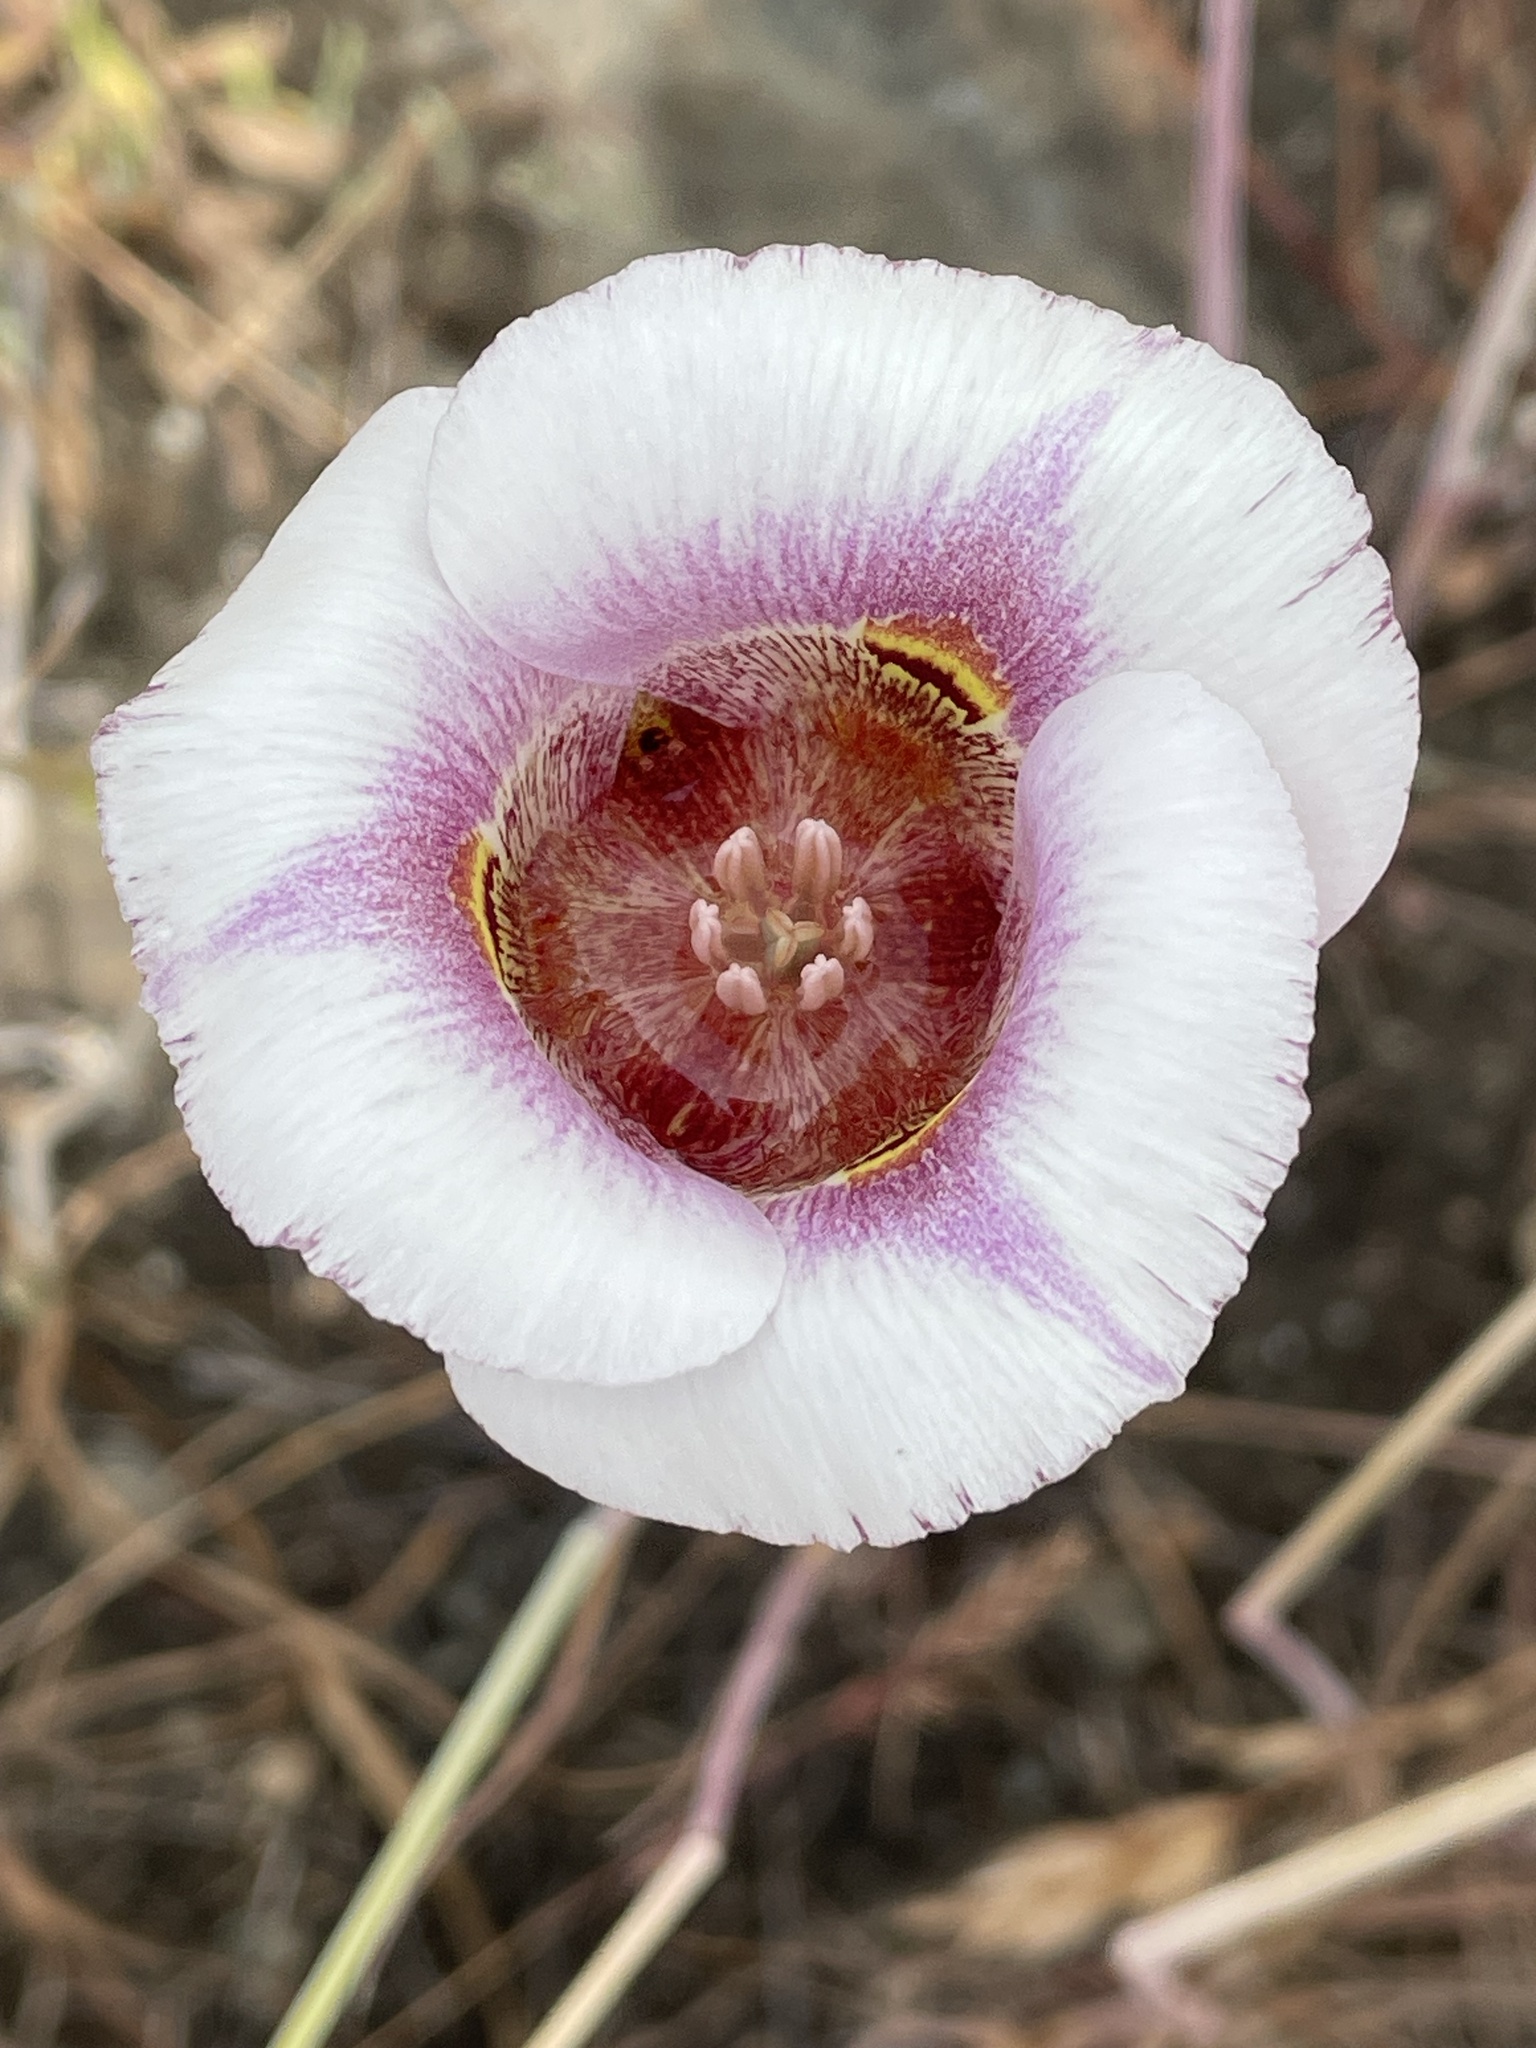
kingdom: Plantae
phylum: Tracheophyta
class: Liliopsida
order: Liliales
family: Liliaceae
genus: Calochortus
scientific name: Calochortus argillosus
